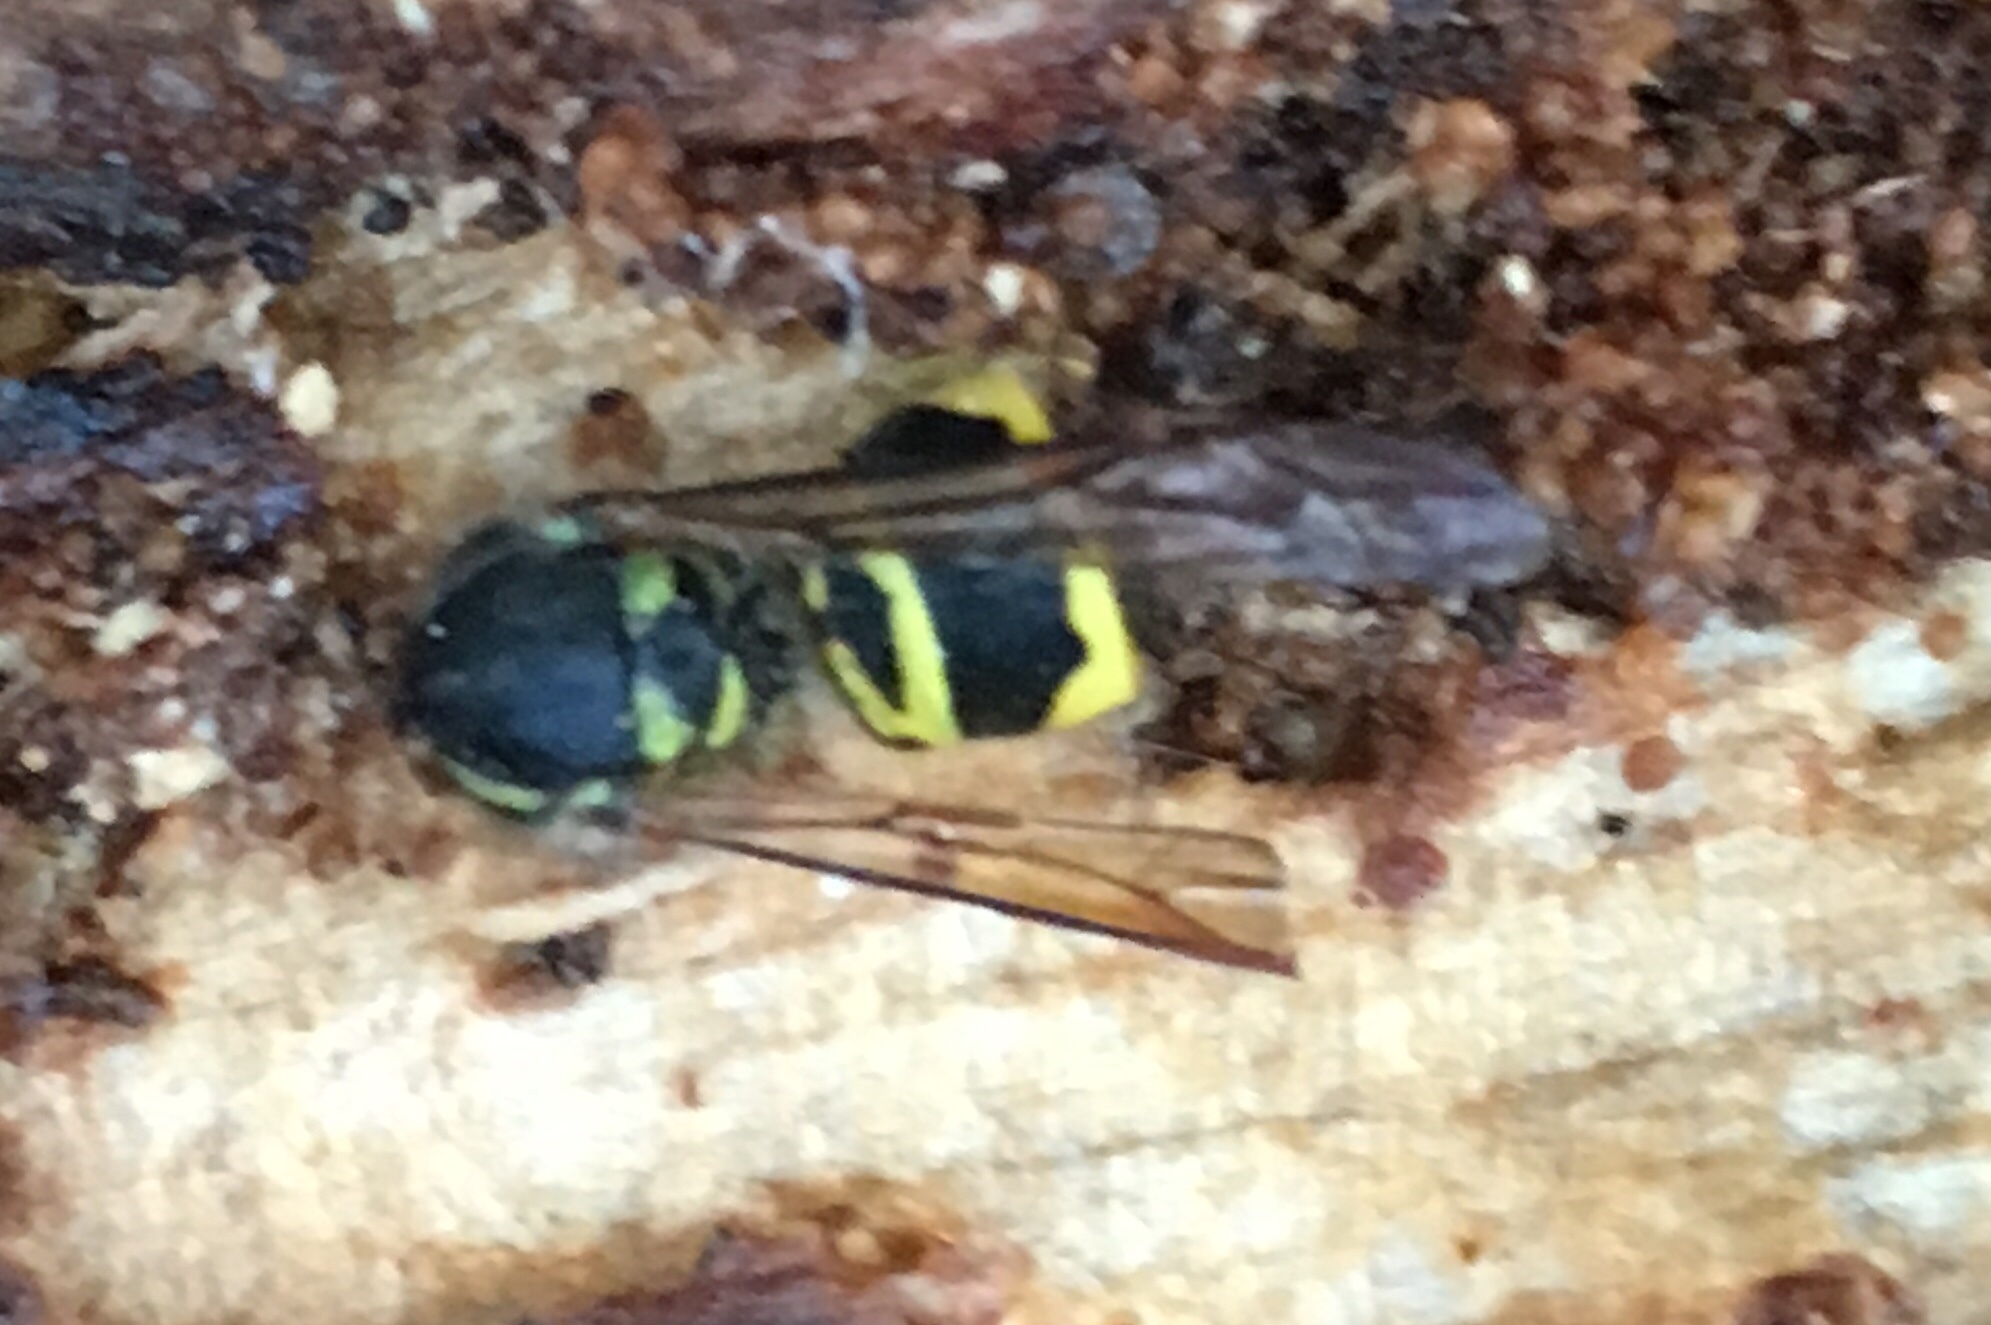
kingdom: Animalia
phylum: Arthropoda
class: Insecta
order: Hymenoptera
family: Vespidae
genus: Vespula
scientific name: Vespula maculifrons
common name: Eastern yellowjacket
